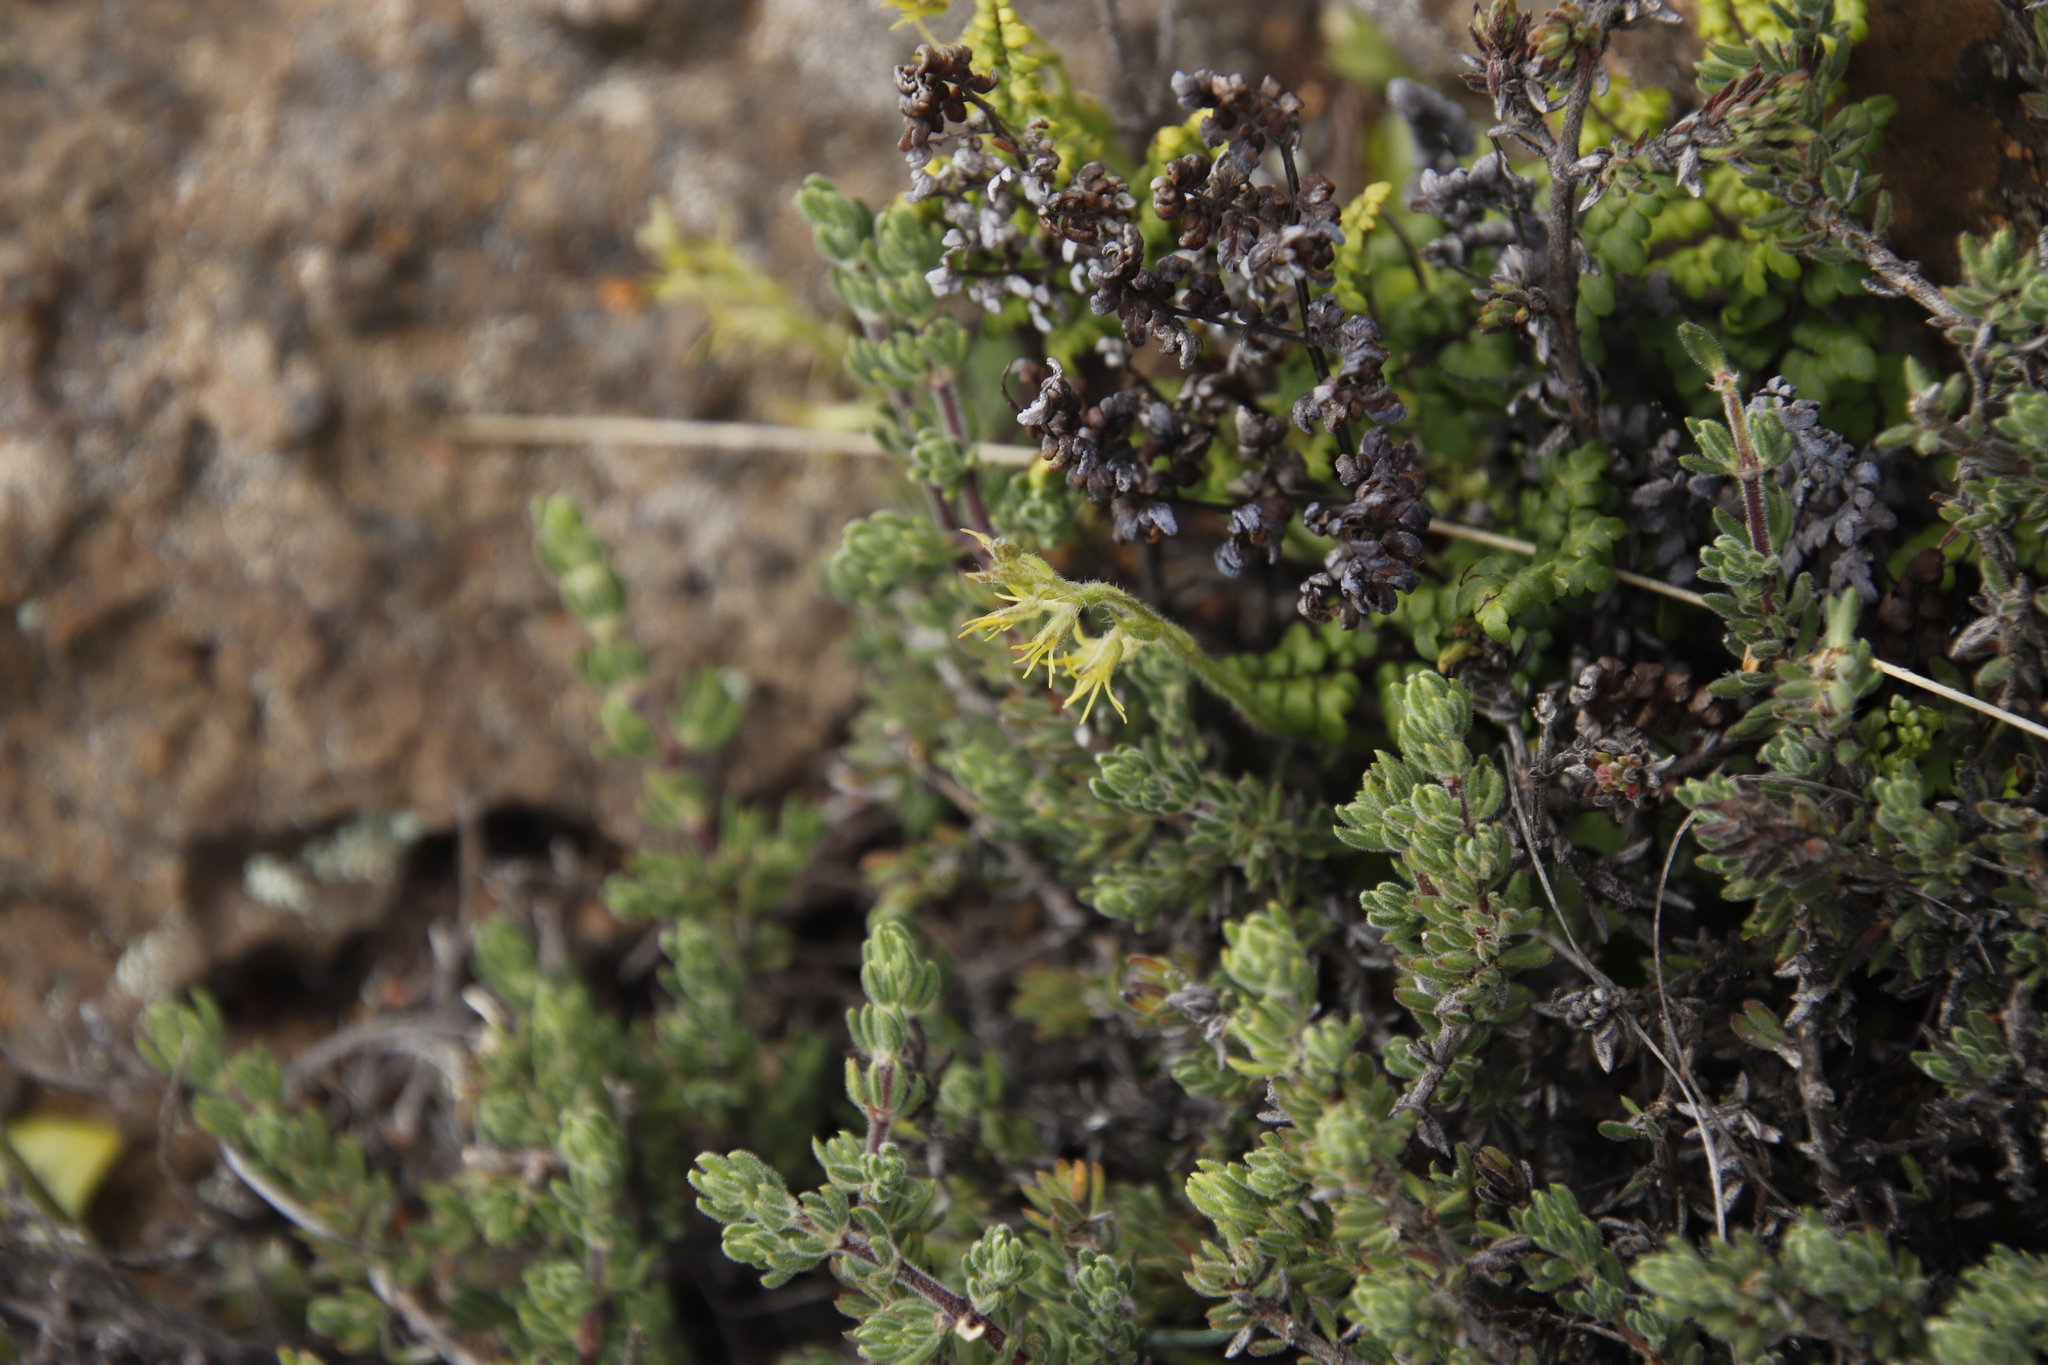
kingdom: Plantae
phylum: Tracheophyta
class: Liliopsida
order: Asparagales
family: Orchidaceae
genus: Holothrix
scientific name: Holothrix incurva
